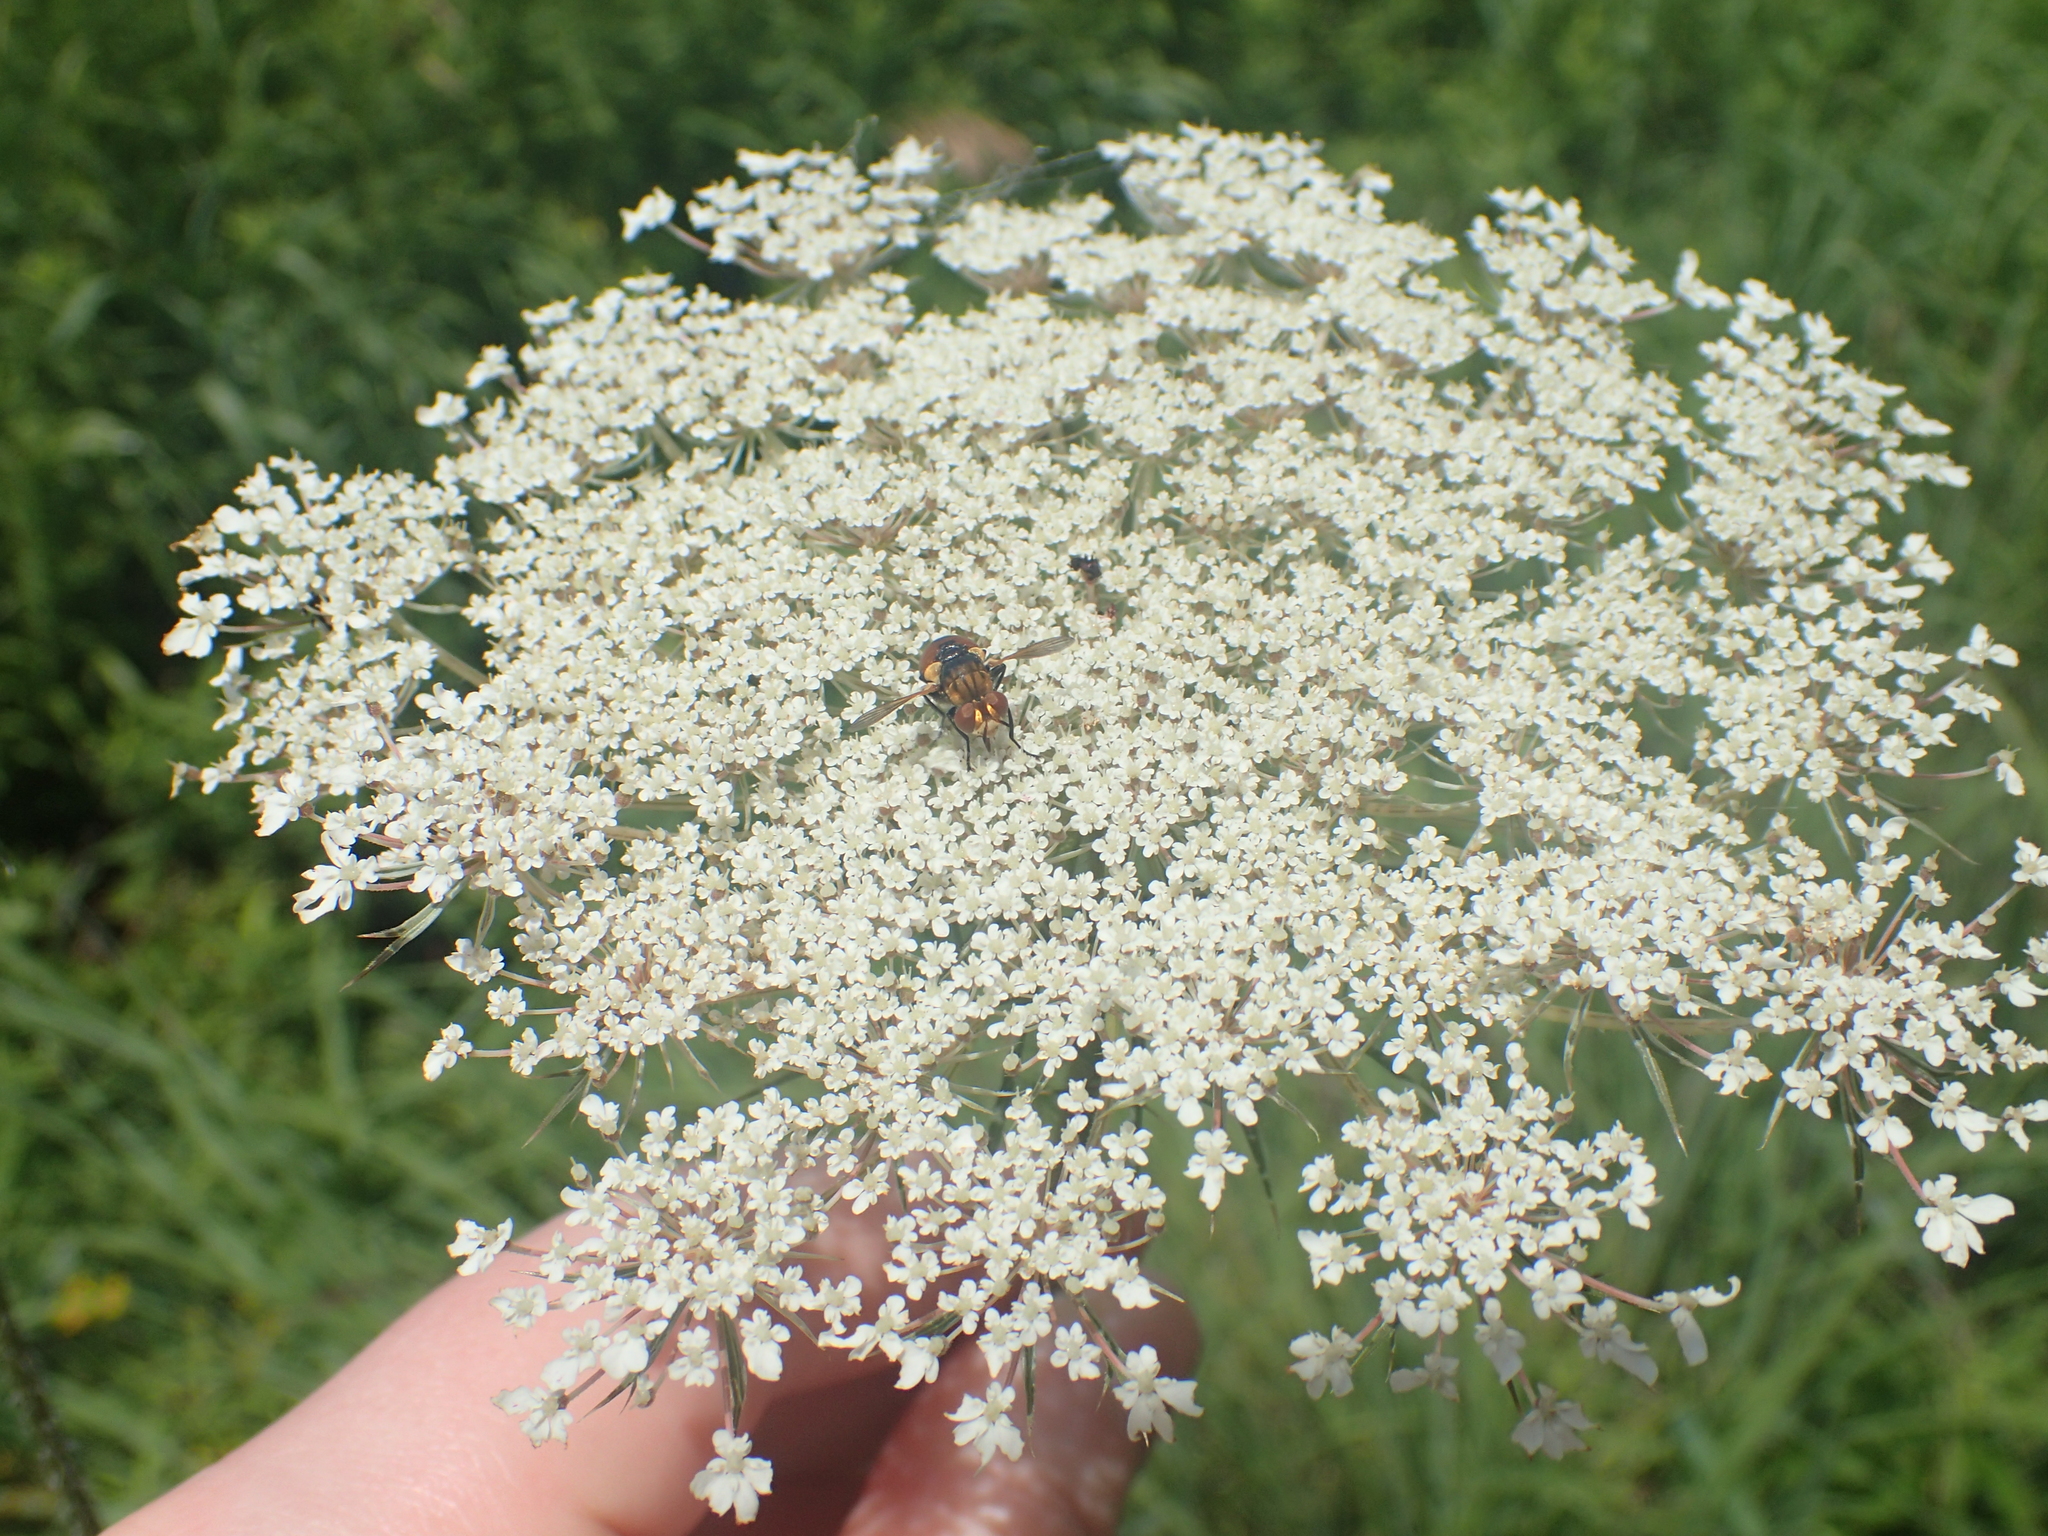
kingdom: Plantae
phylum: Tracheophyta
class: Magnoliopsida
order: Apiales
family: Apiaceae
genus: Daucus
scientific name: Daucus carota
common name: Wild carrot
